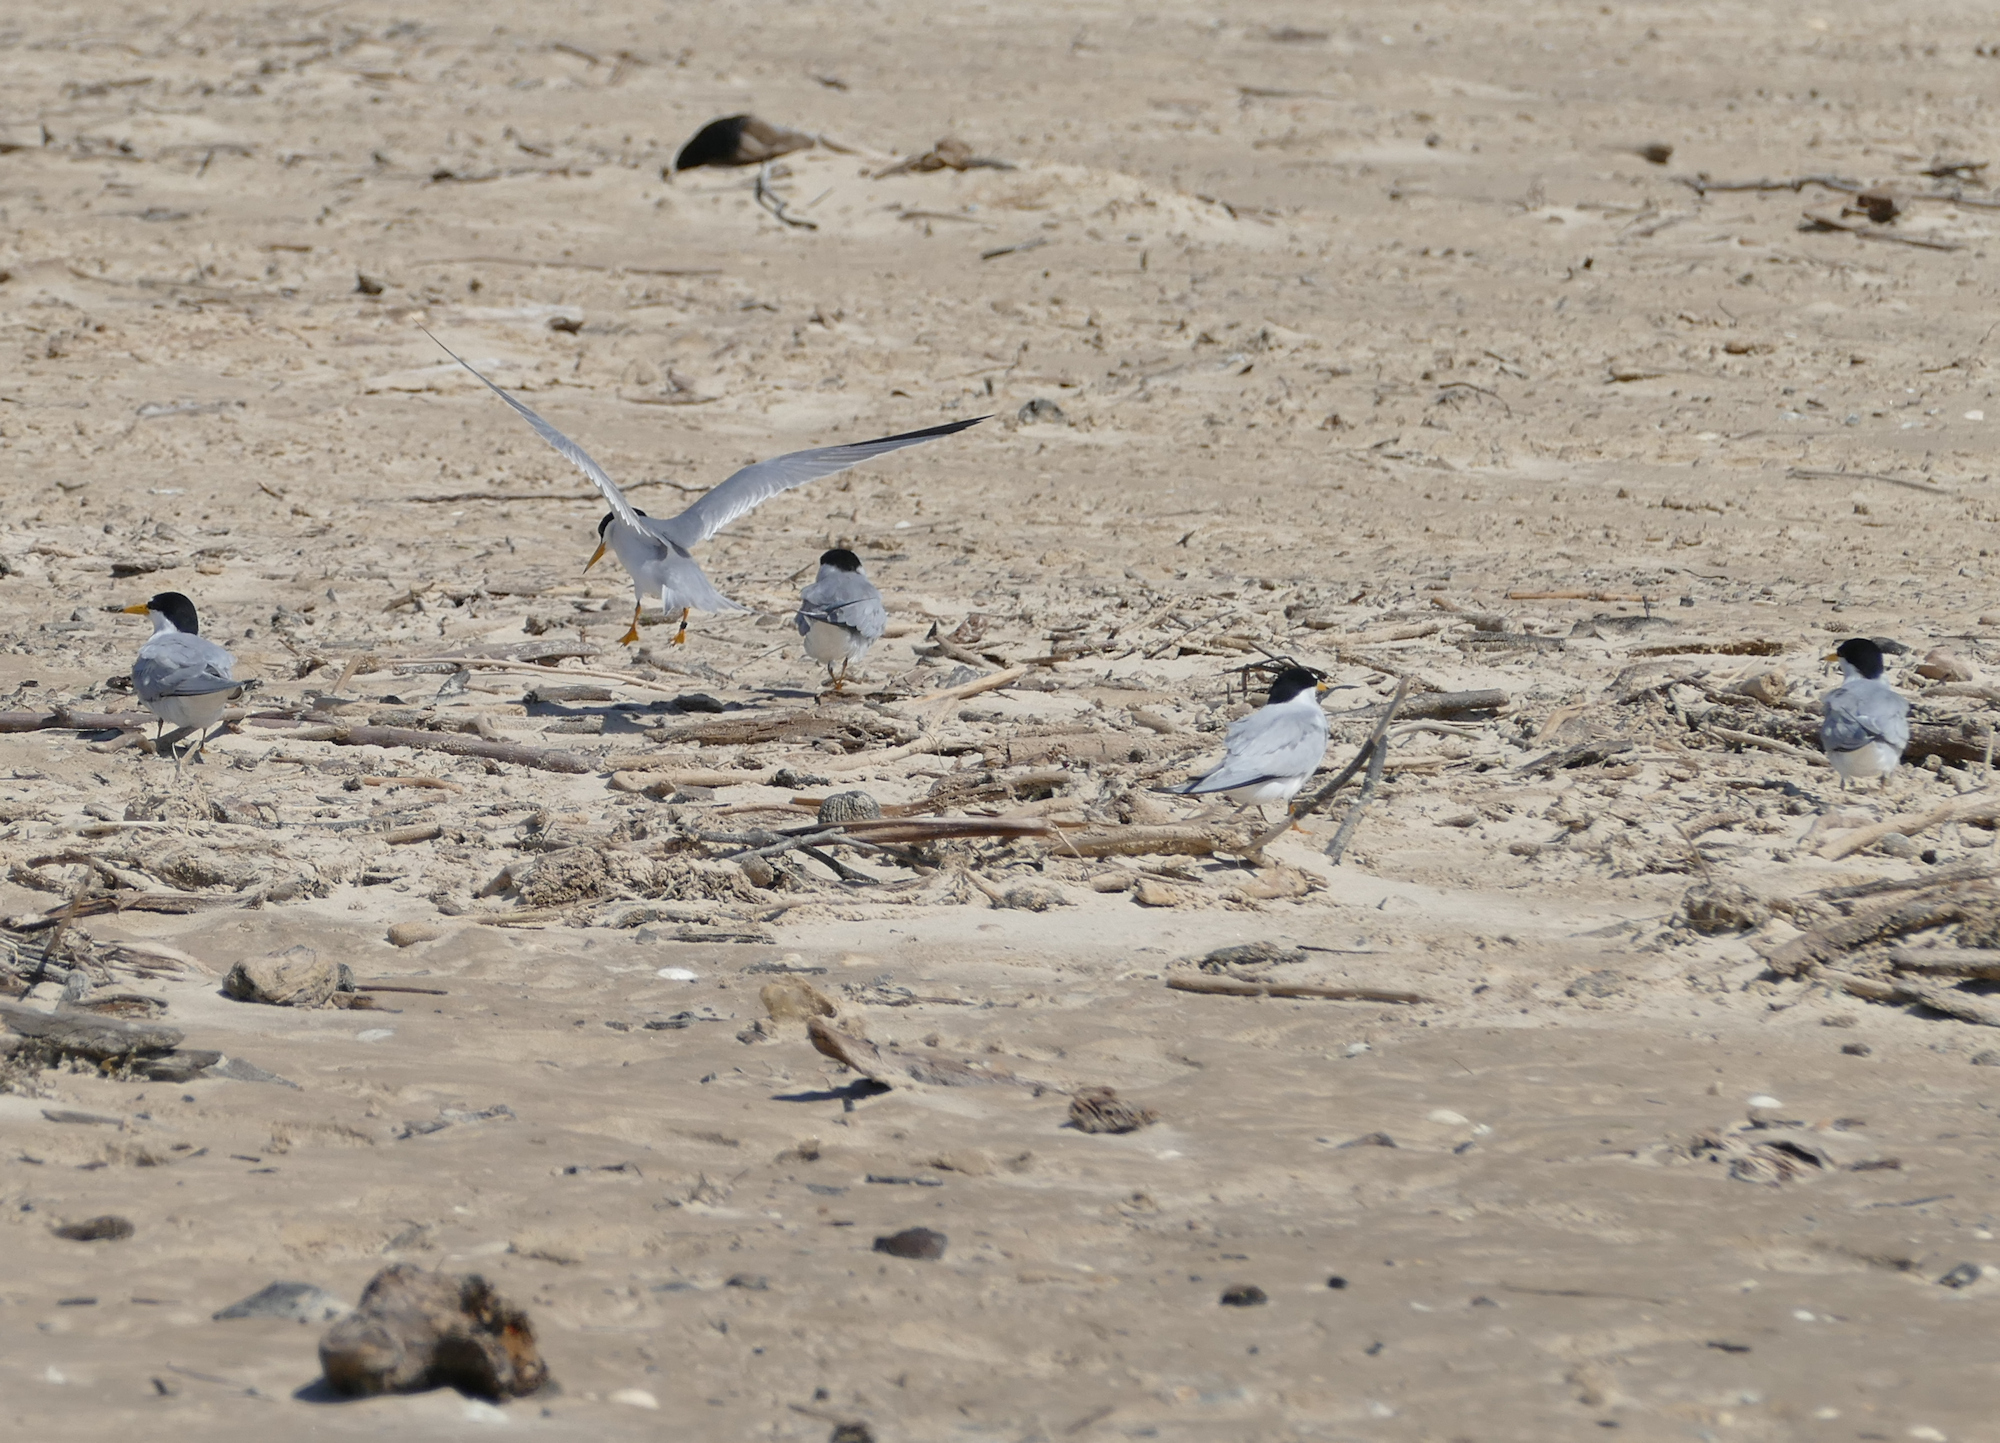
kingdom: Animalia
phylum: Chordata
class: Aves
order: Charadriiformes
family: Laridae
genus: Sternula
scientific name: Sternula antillarum
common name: Least tern
